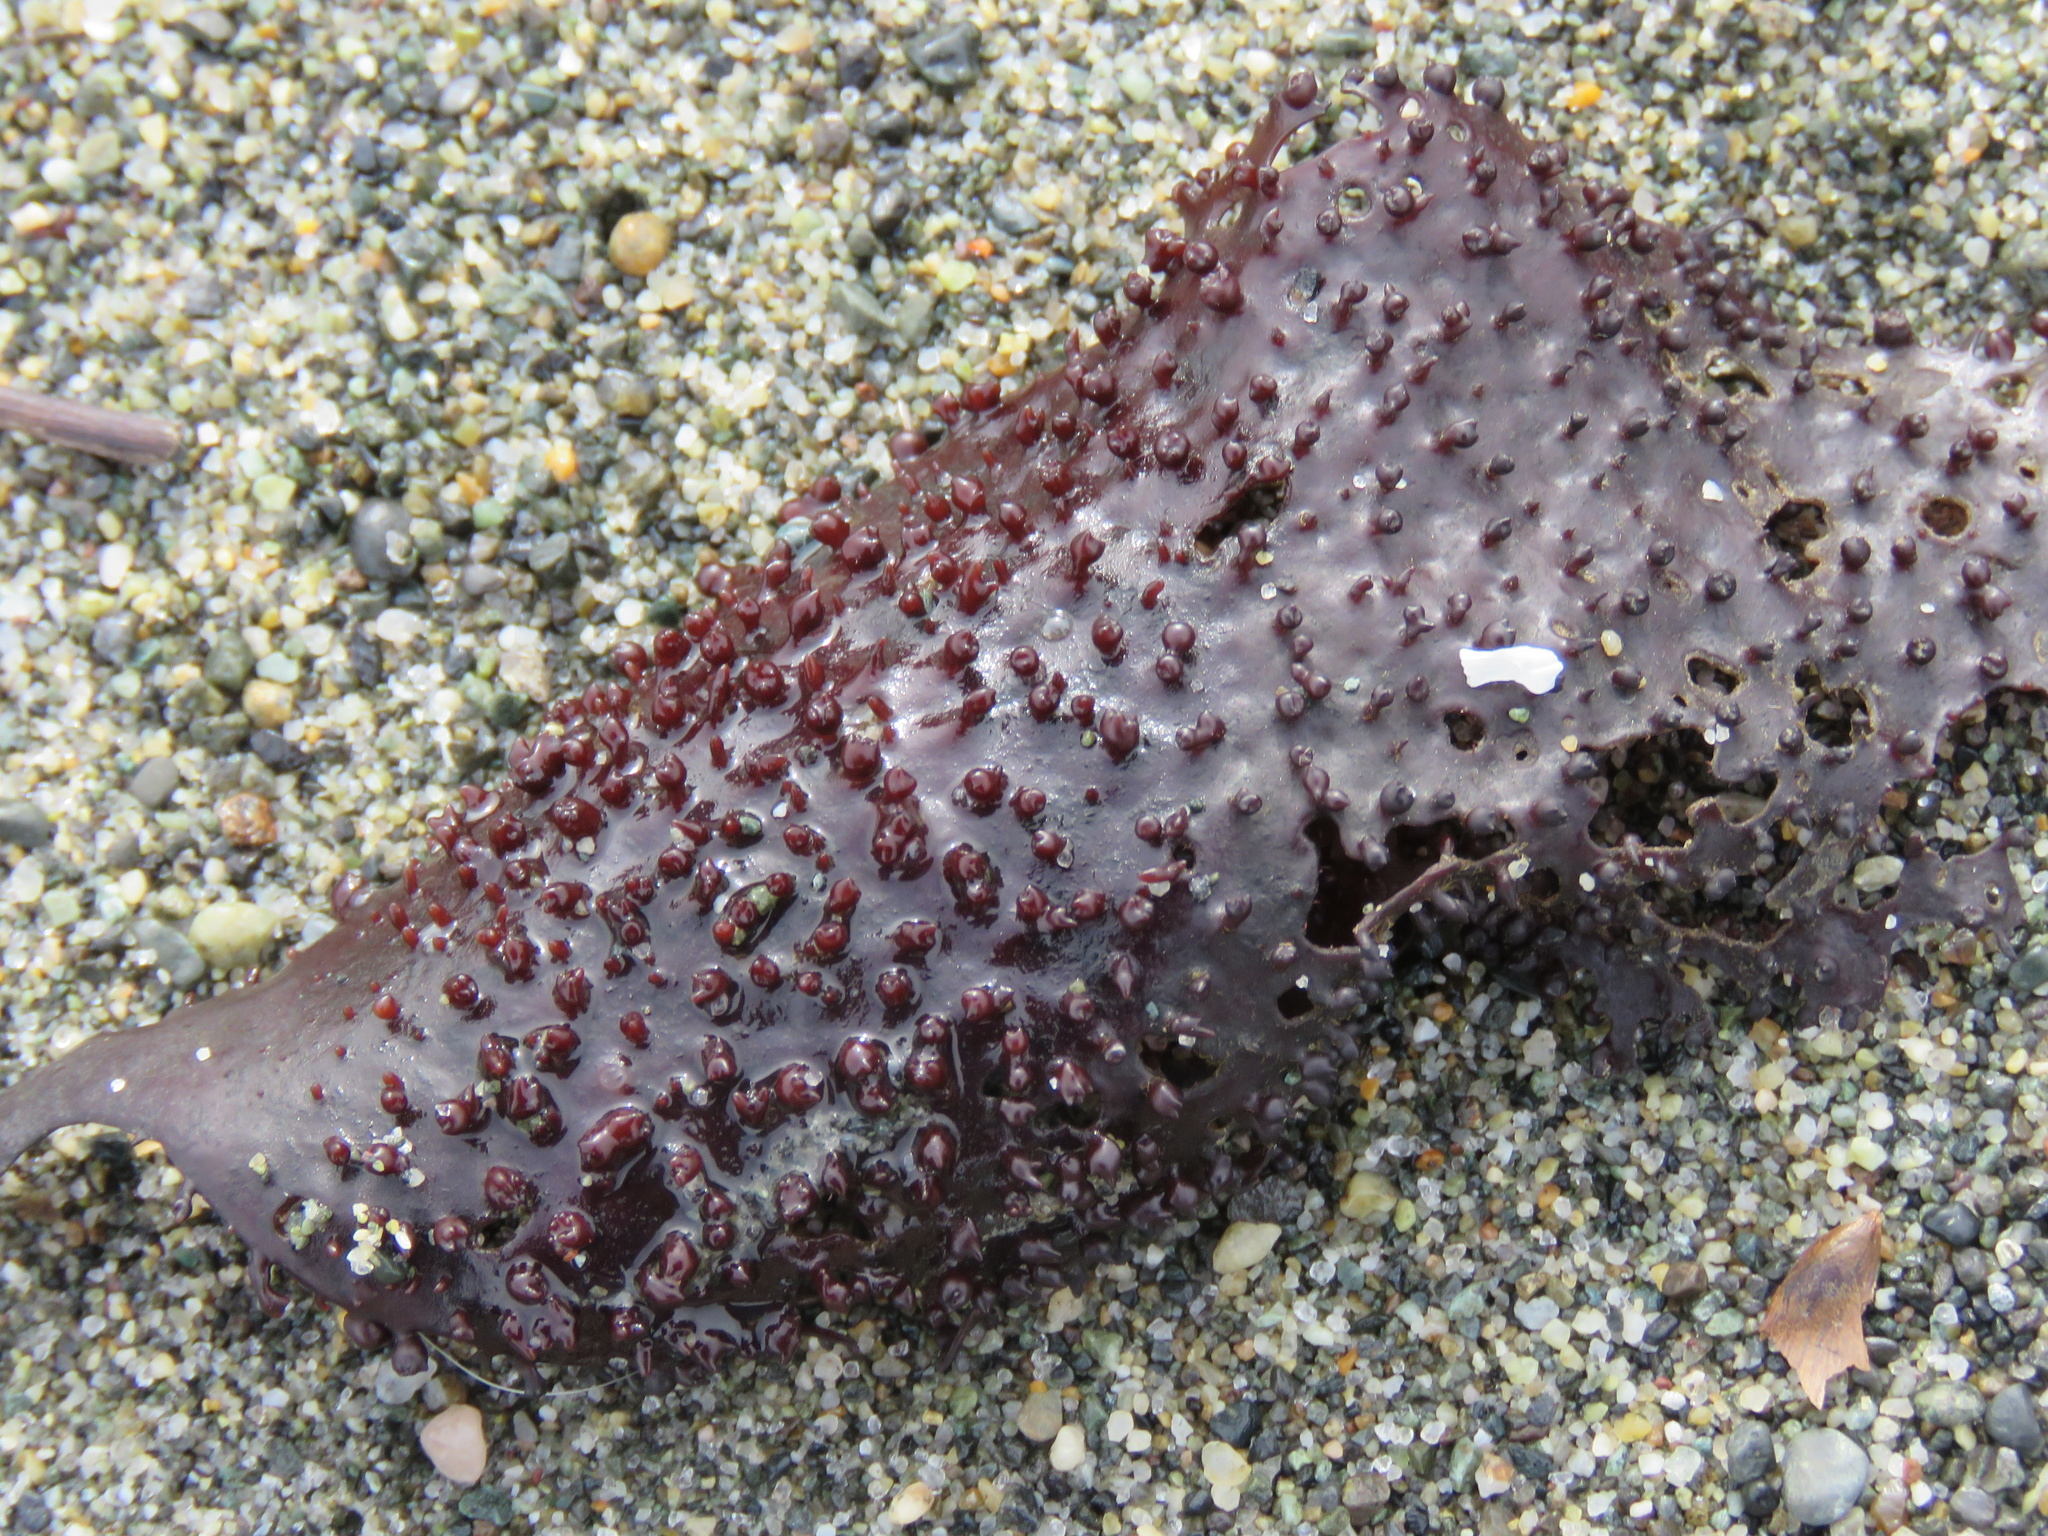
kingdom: Plantae
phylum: Rhodophyta
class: Florideophyceae
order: Gigartinales
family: Gigartinaceae
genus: Chondracanthus
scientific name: Chondracanthus exasperatus
